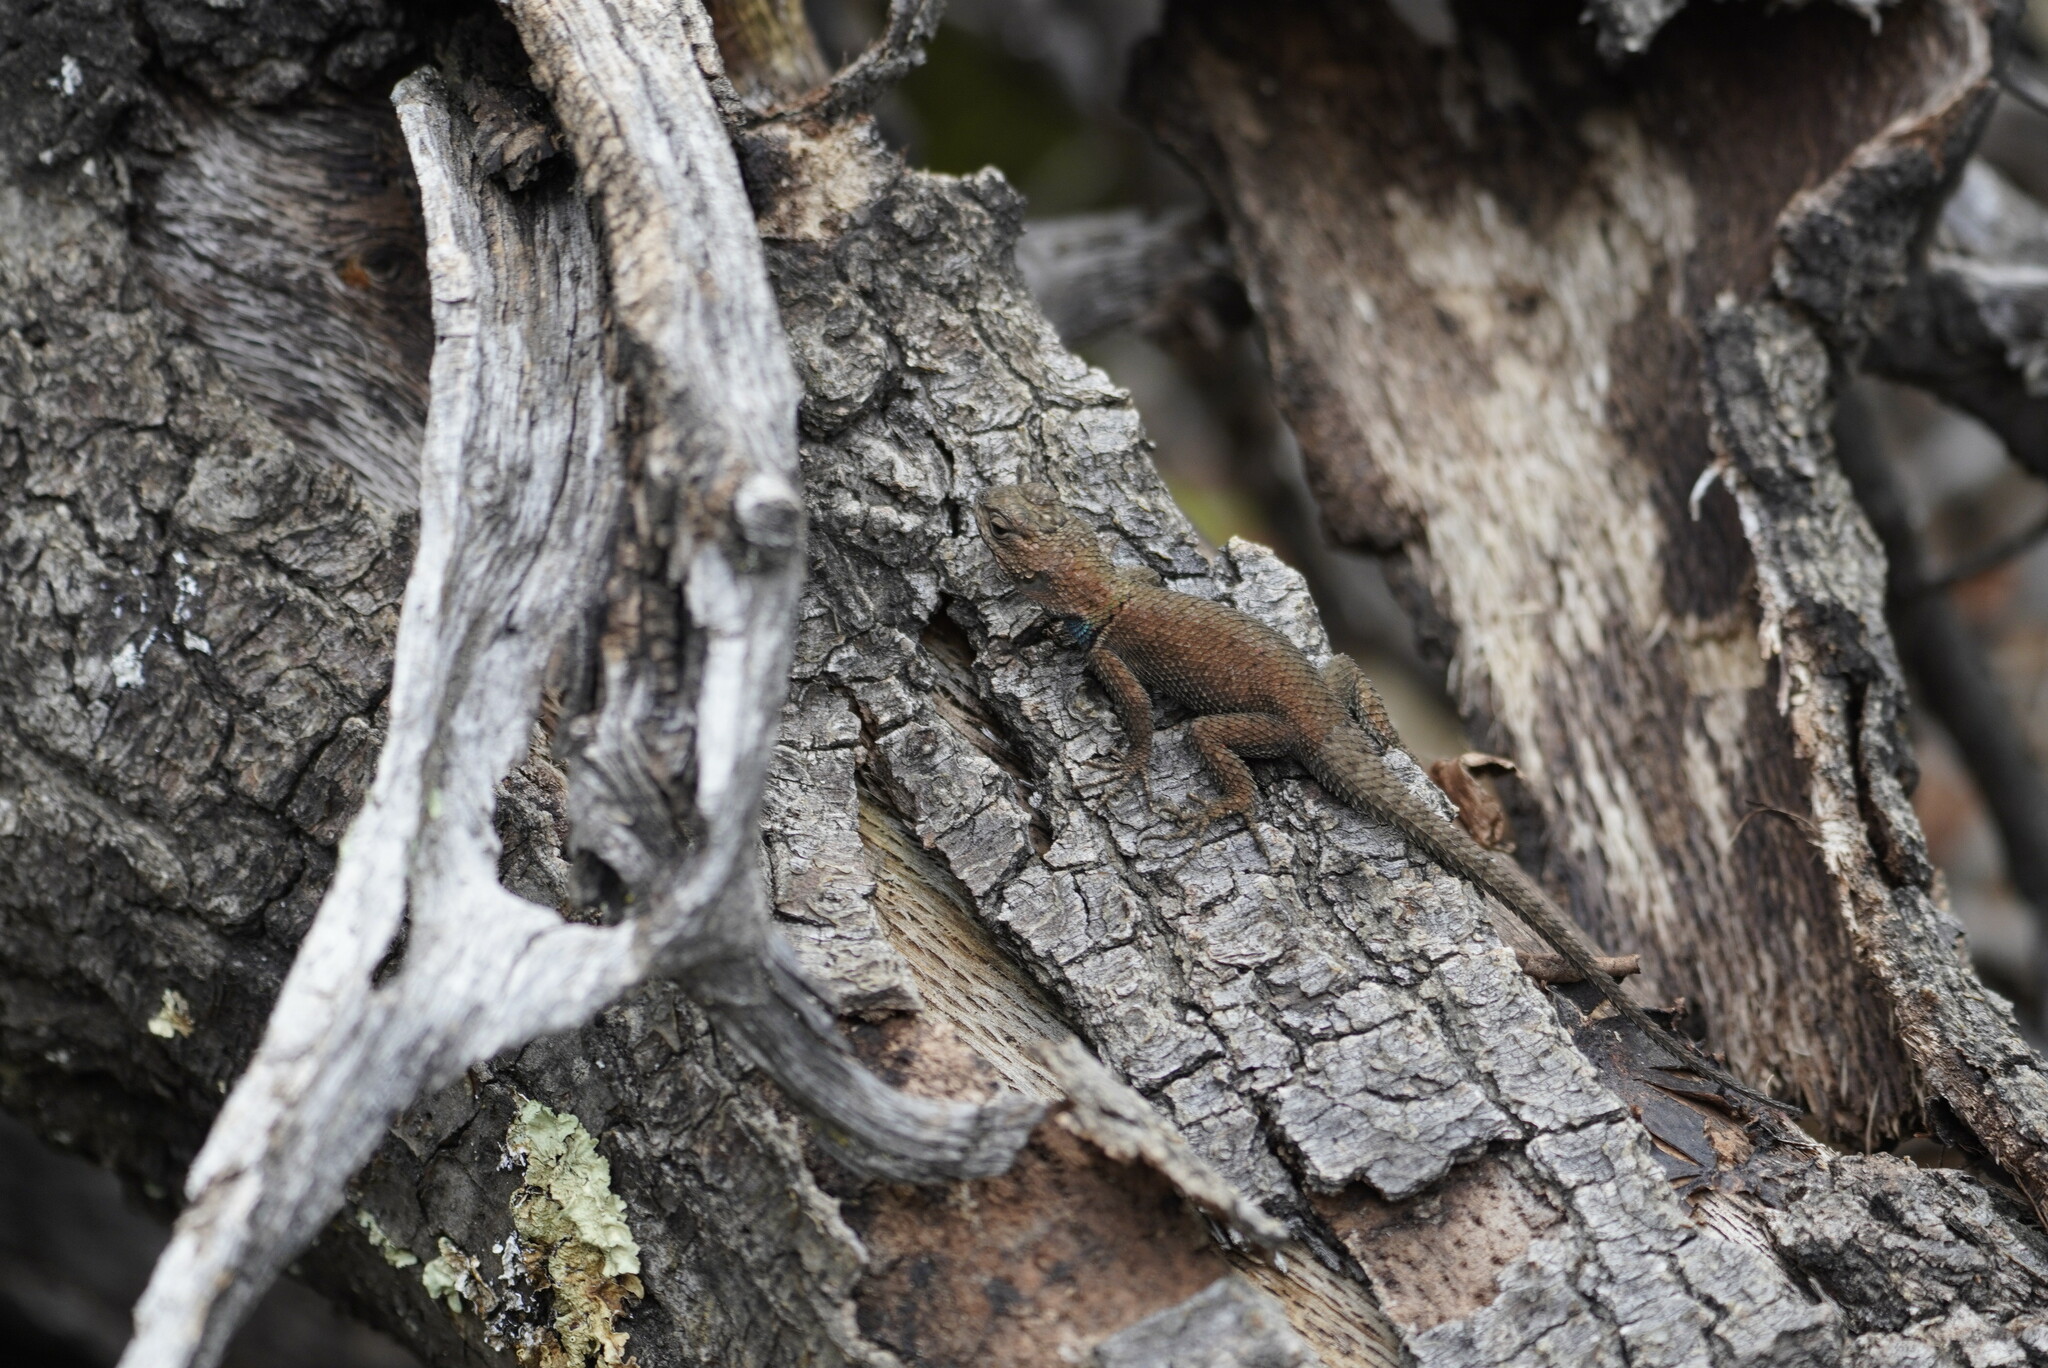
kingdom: Animalia
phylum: Chordata
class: Squamata
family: Phrynosomatidae
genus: Sceloporus
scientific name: Sceloporus jarrovii
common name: Yarrow's spiny lizard
